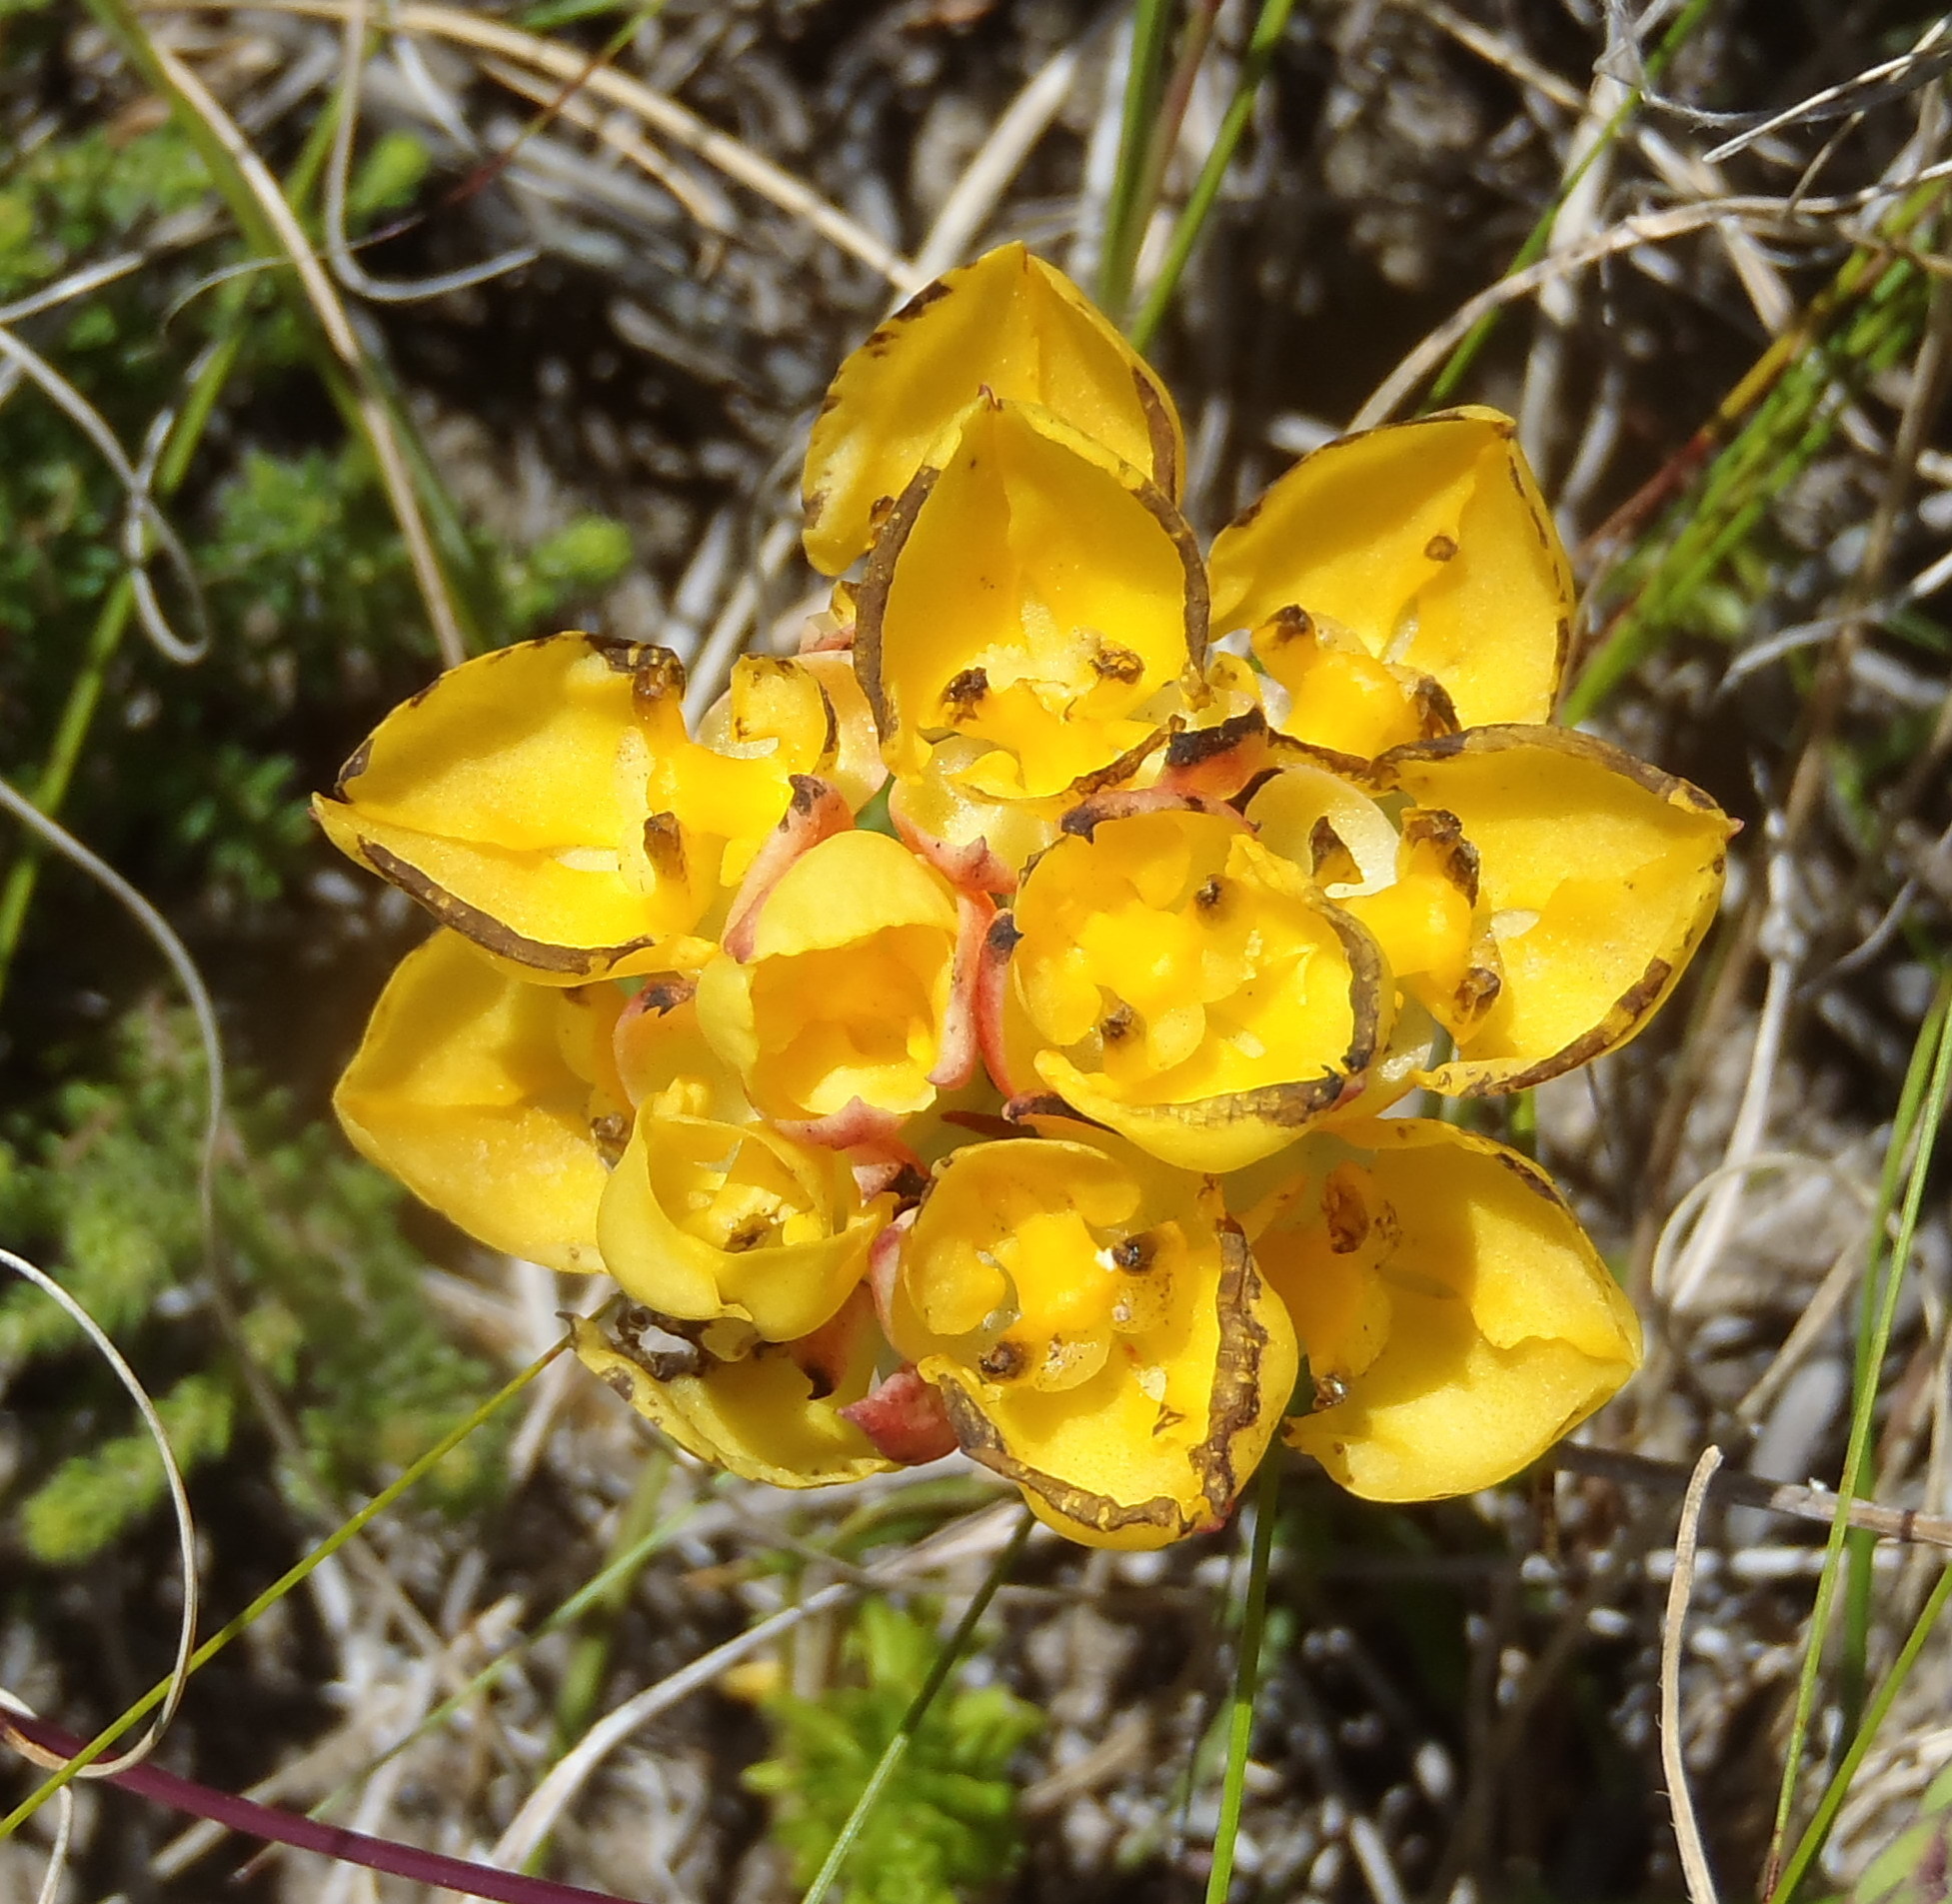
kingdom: Plantae
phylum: Tracheophyta
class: Liliopsida
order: Asparagales
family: Orchidaceae
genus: Ceratandra
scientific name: Ceratandra grandiflora
